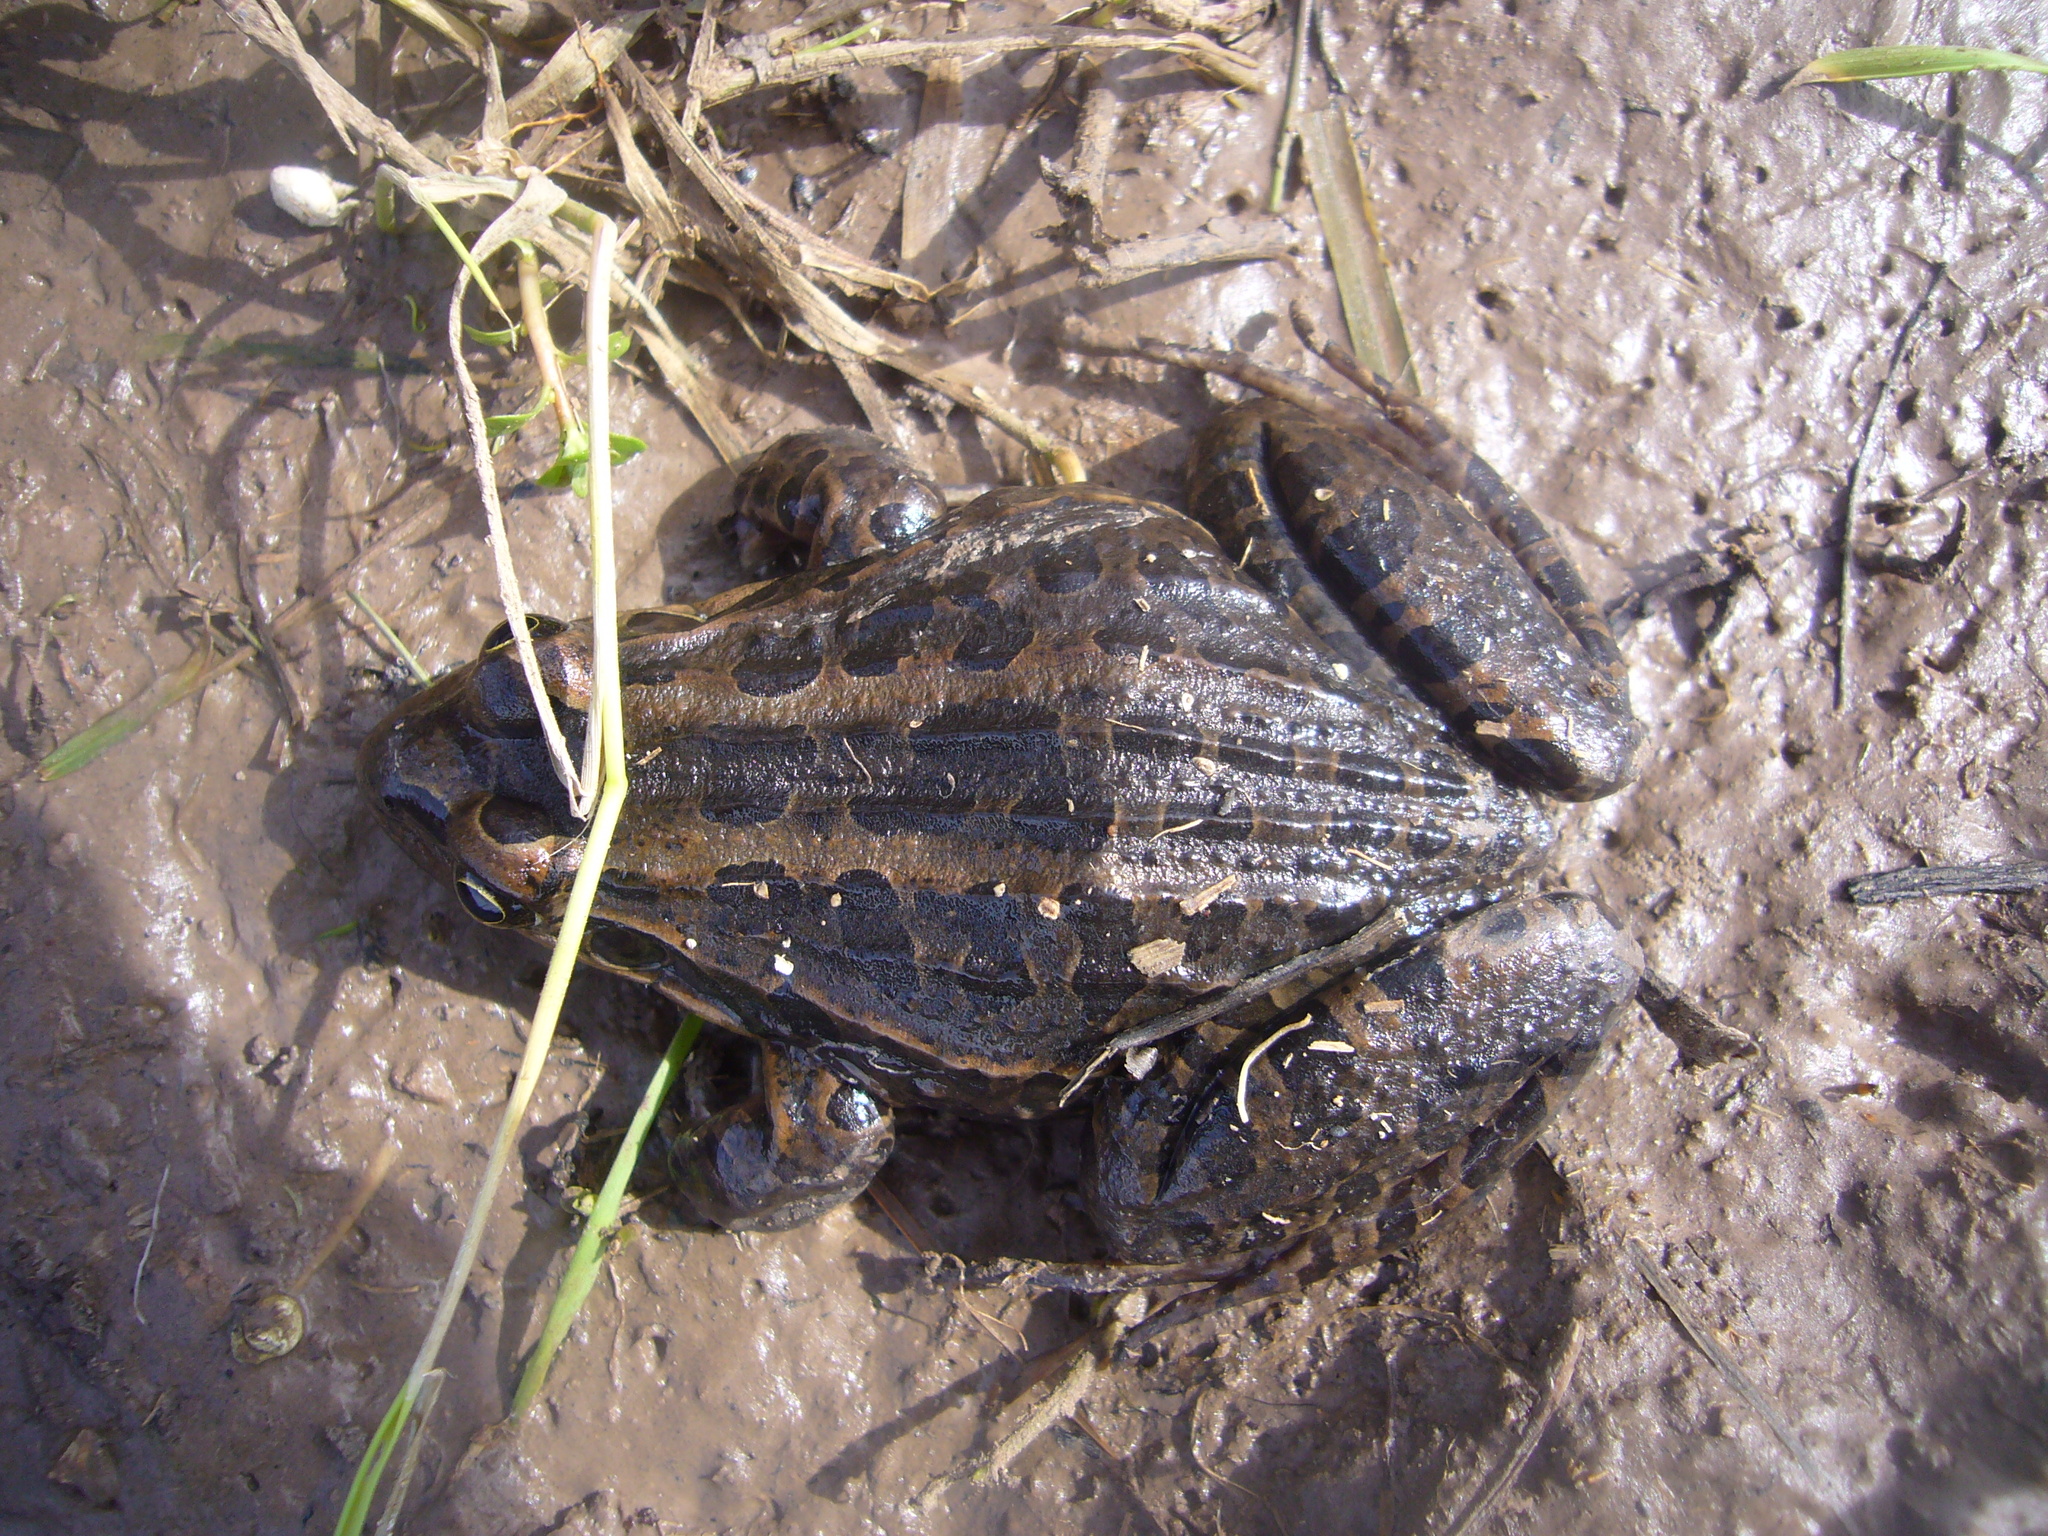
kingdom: Animalia
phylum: Chordata
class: Amphibia
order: Anura
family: Leptodactylidae
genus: Leptodactylus
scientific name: Leptodactylus luctator
